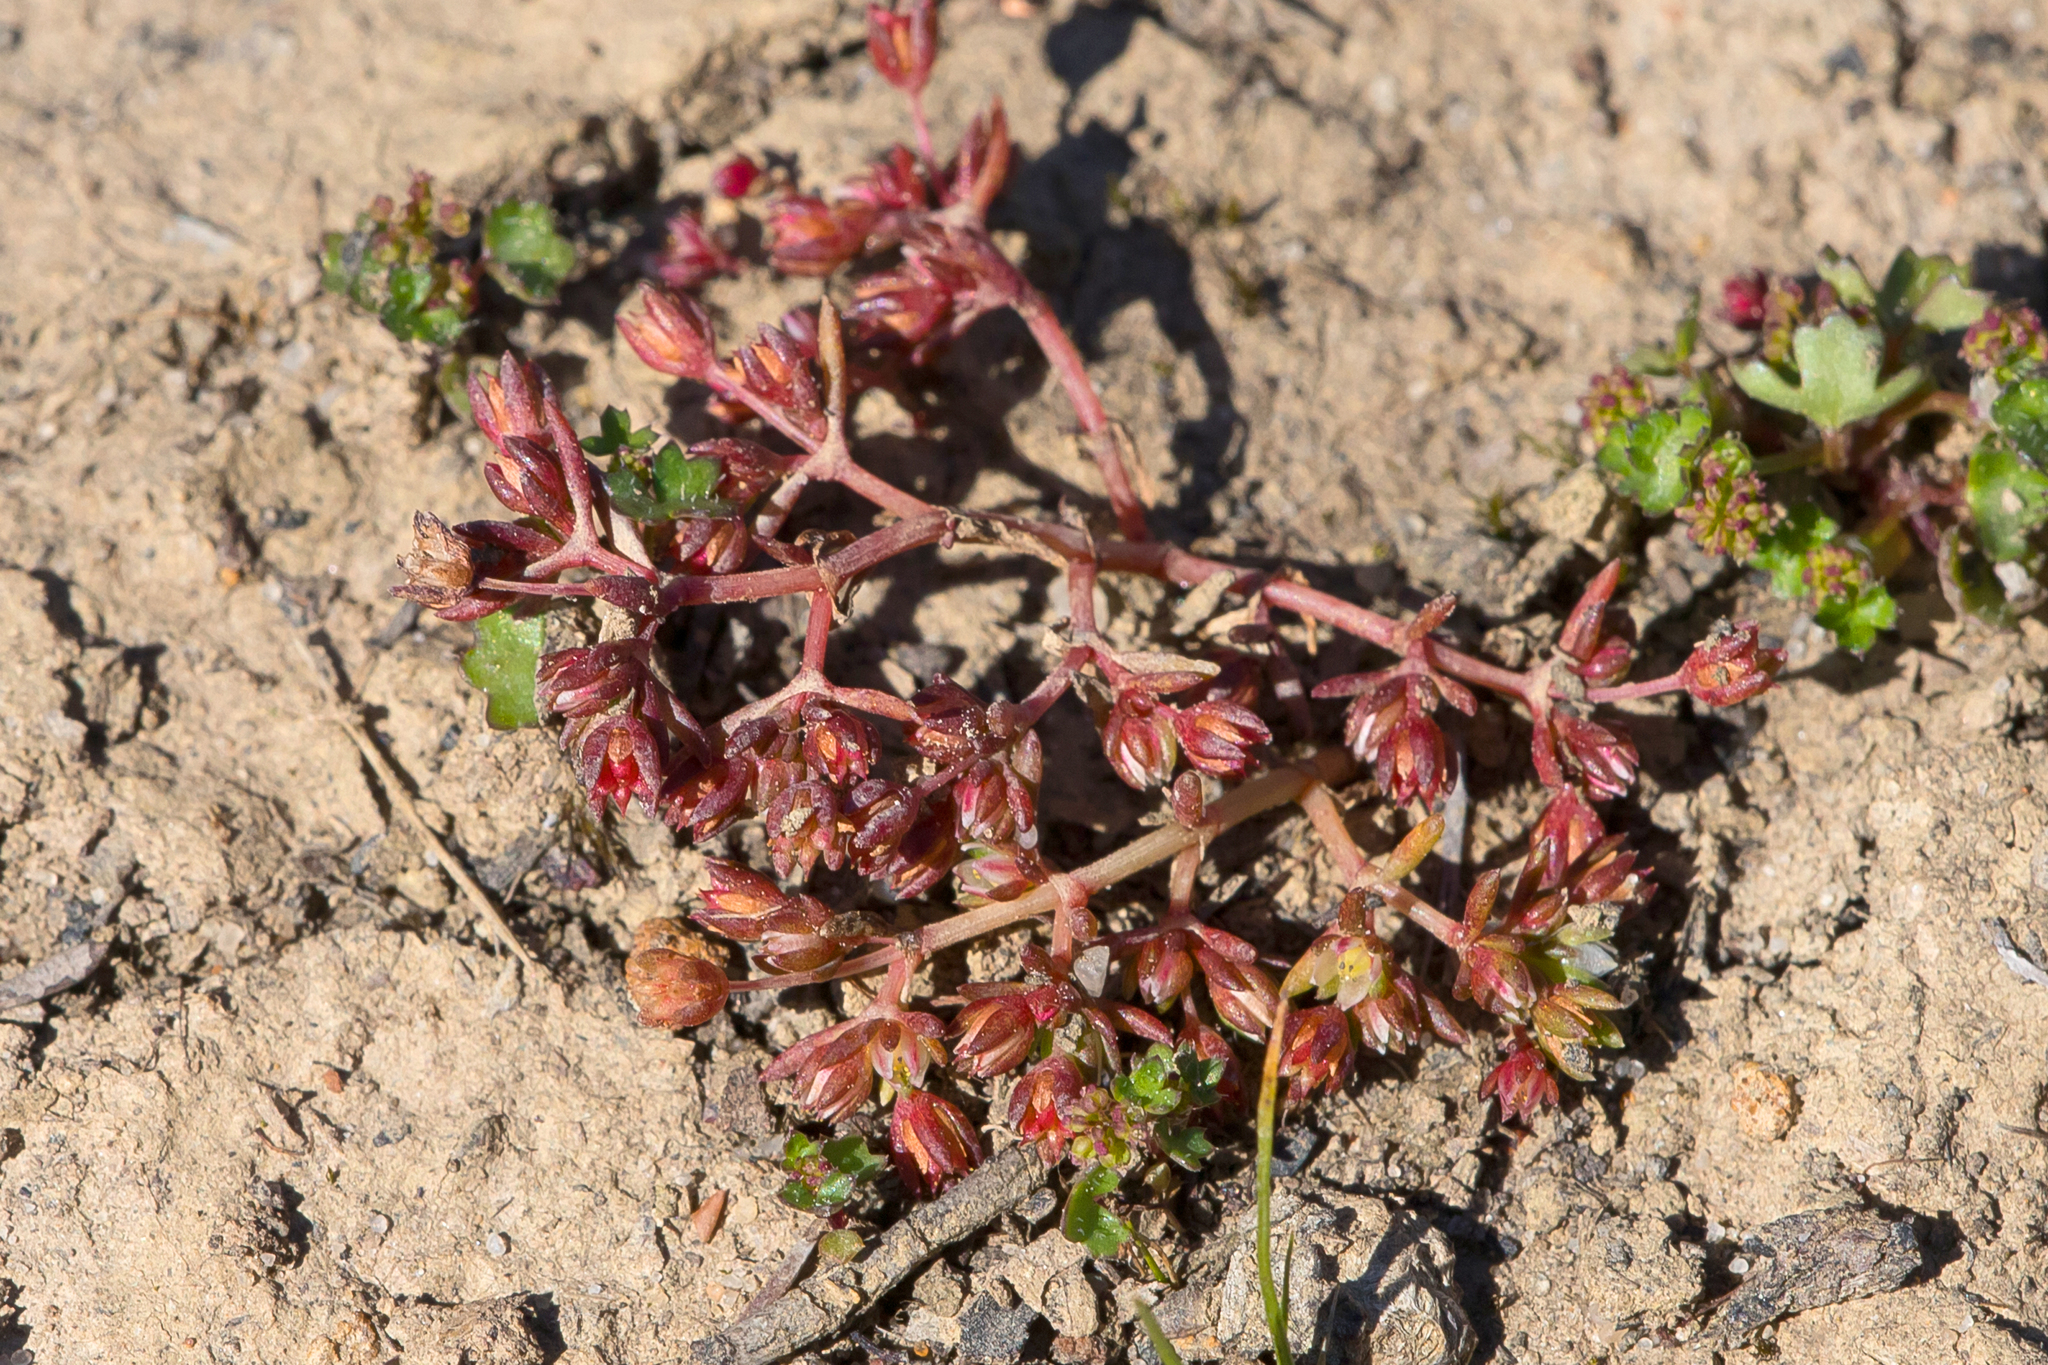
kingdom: Plantae
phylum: Tracheophyta
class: Magnoliopsida
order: Saxifragales
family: Crassulaceae
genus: Crassula
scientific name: Crassula decumbens
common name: Scilly pigmyweed
